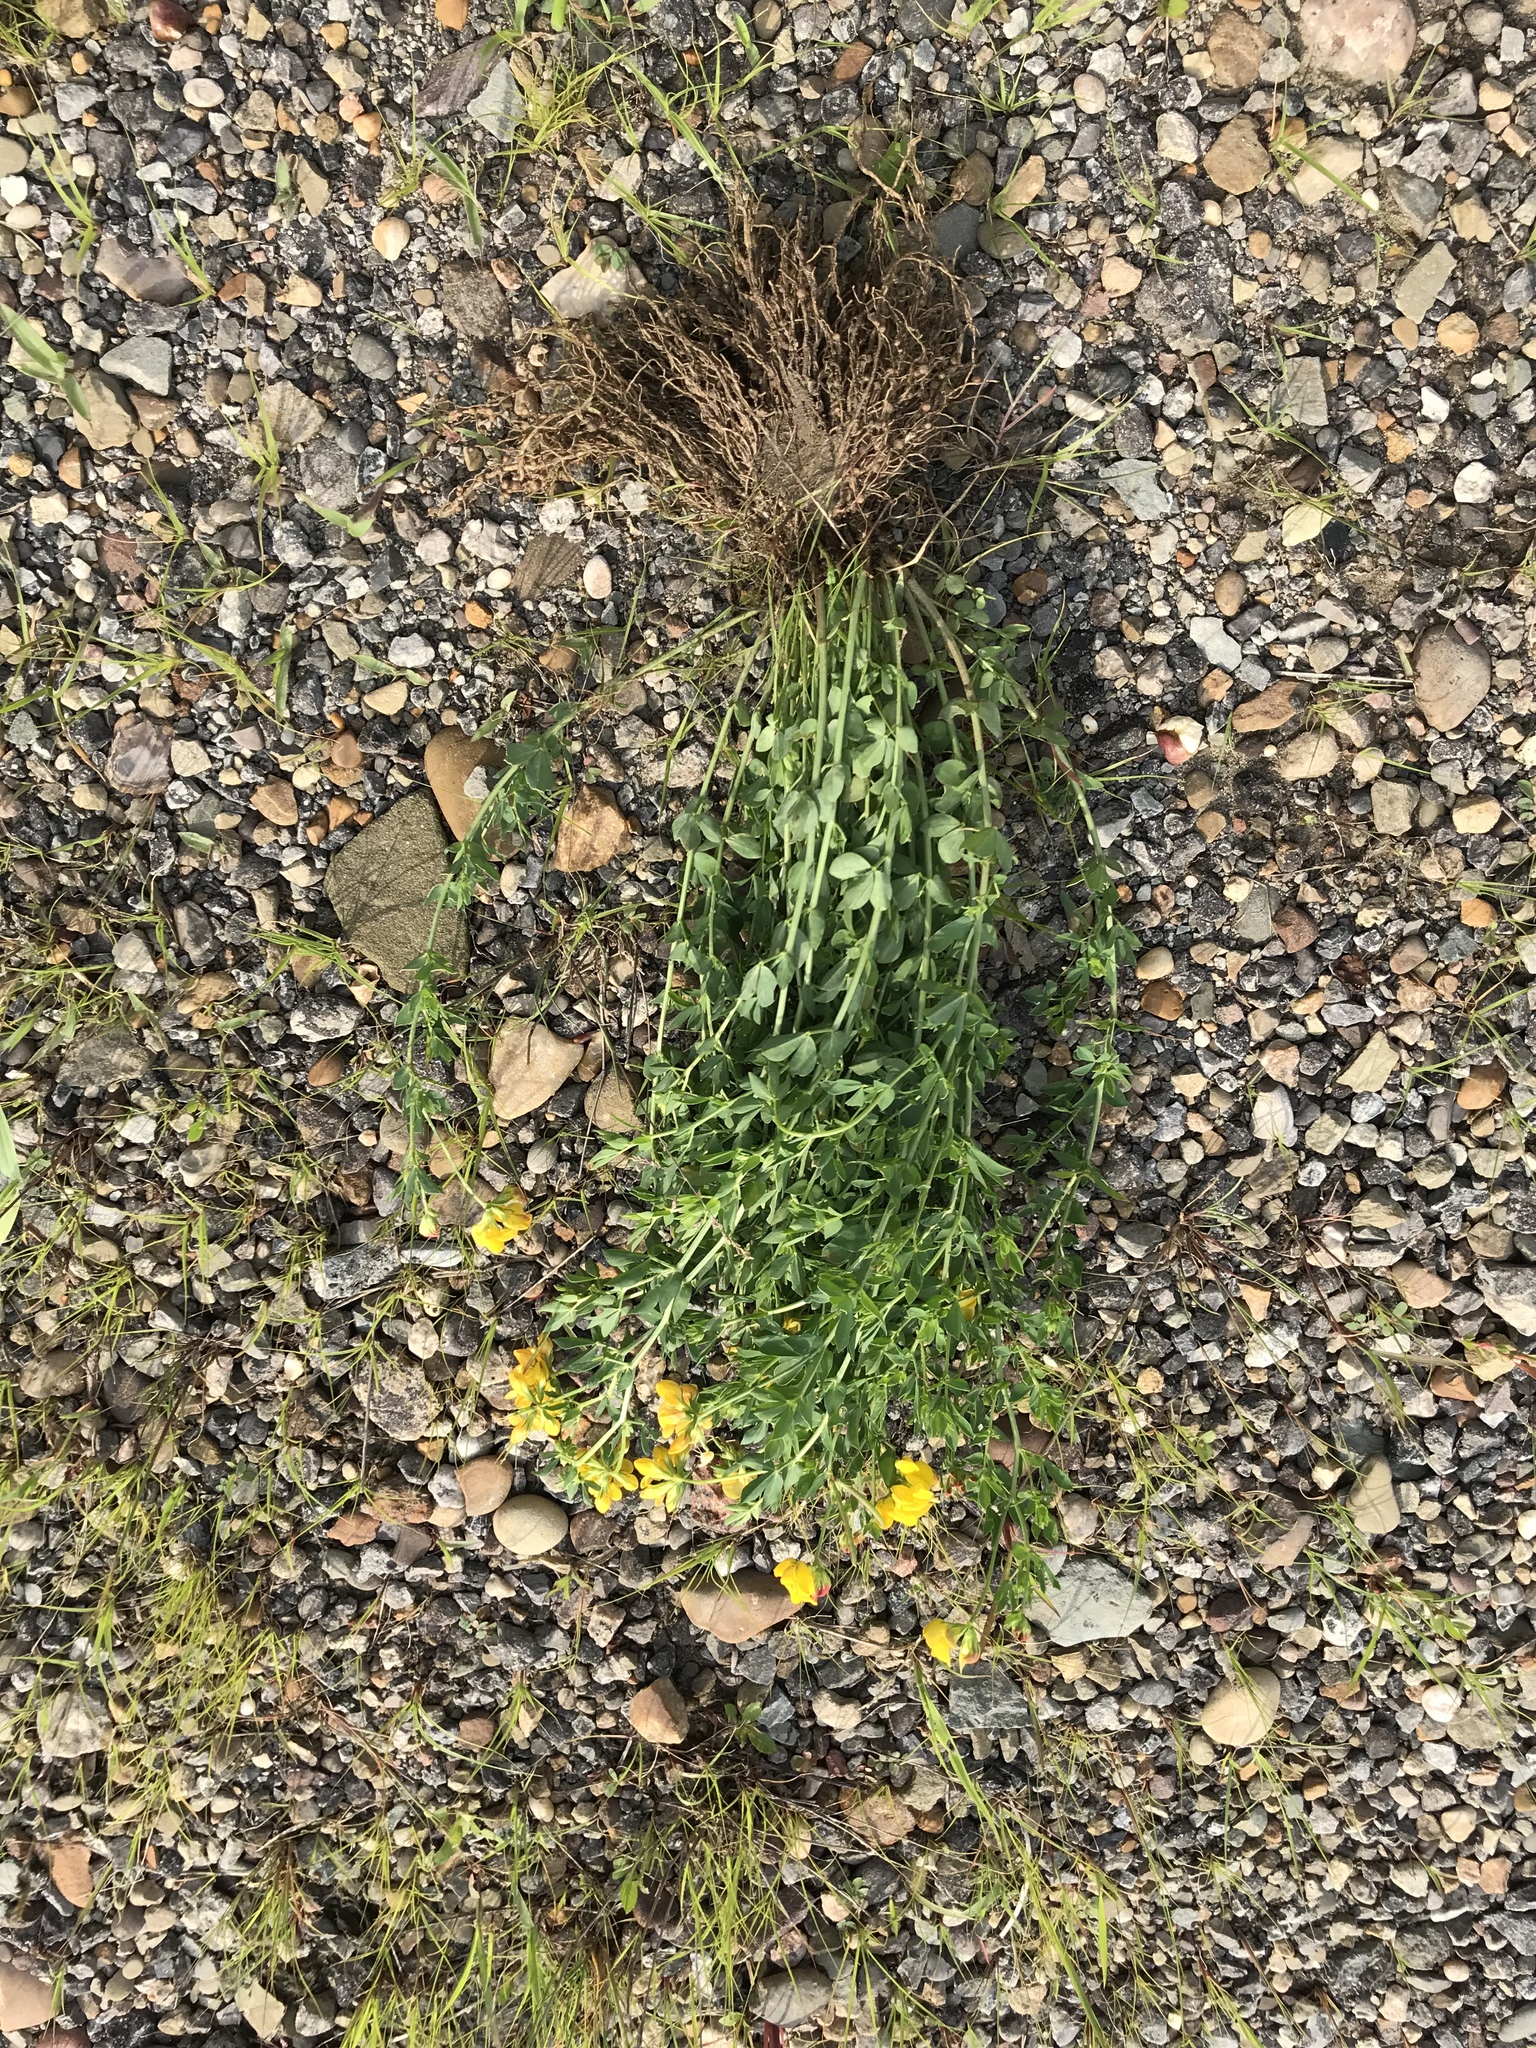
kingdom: Plantae
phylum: Tracheophyta
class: Magnoliopsida
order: Fabales
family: Fabaceae
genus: Lotus
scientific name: Lotus corniculatus
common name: Common bird's-foot-trefoil
